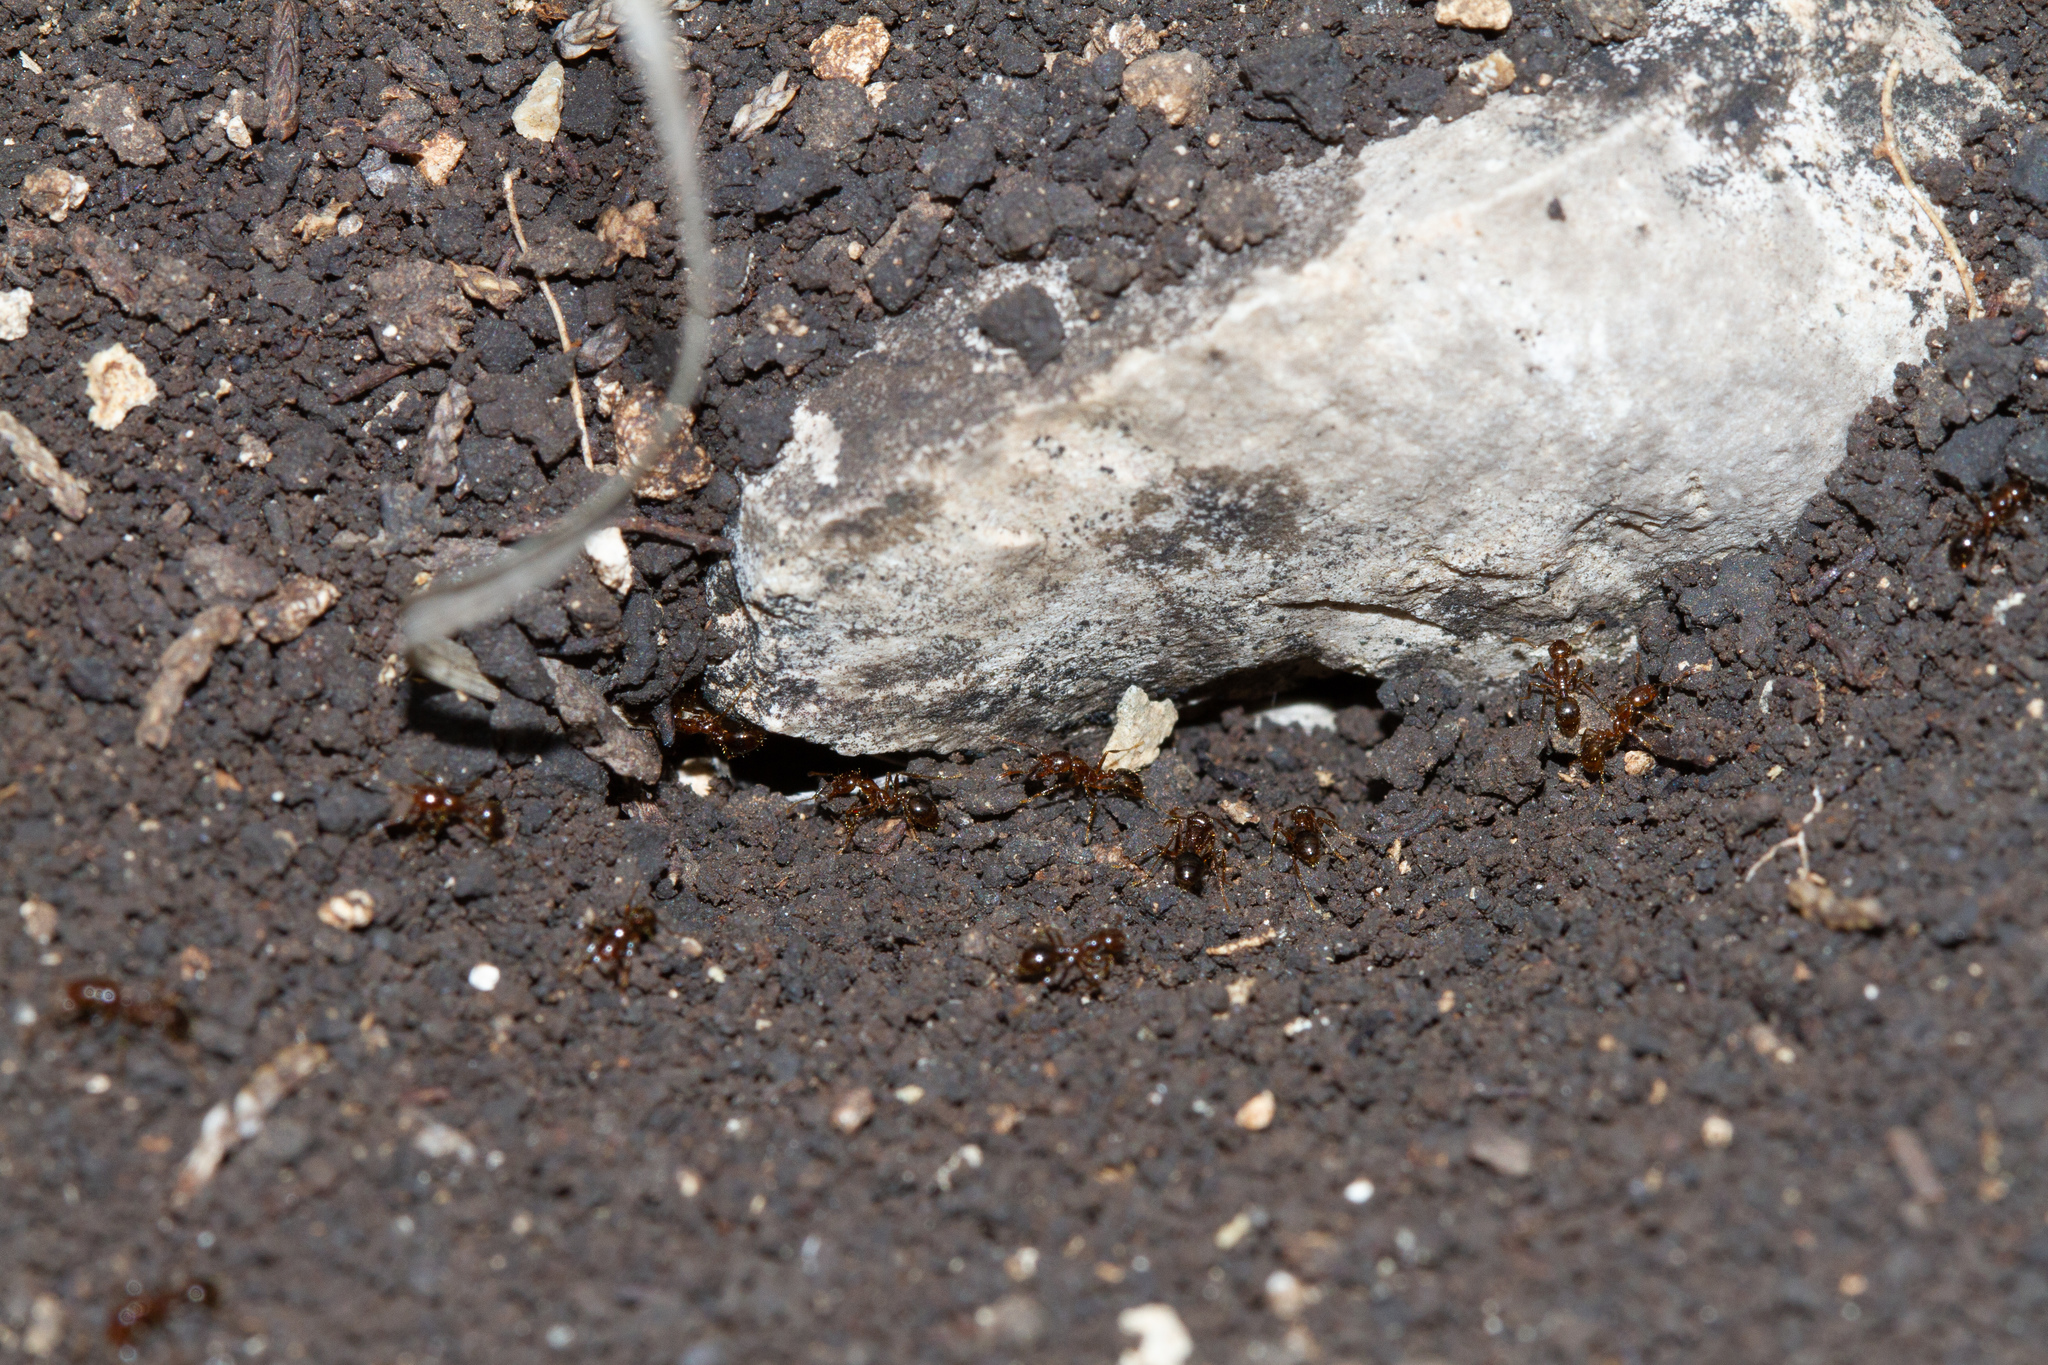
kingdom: Animalia
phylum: Arthropoda
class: Insecta
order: Hymenoptera
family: Formicidae
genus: Solenopsis
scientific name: Solenopsis invicta
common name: Red imported fire ant
